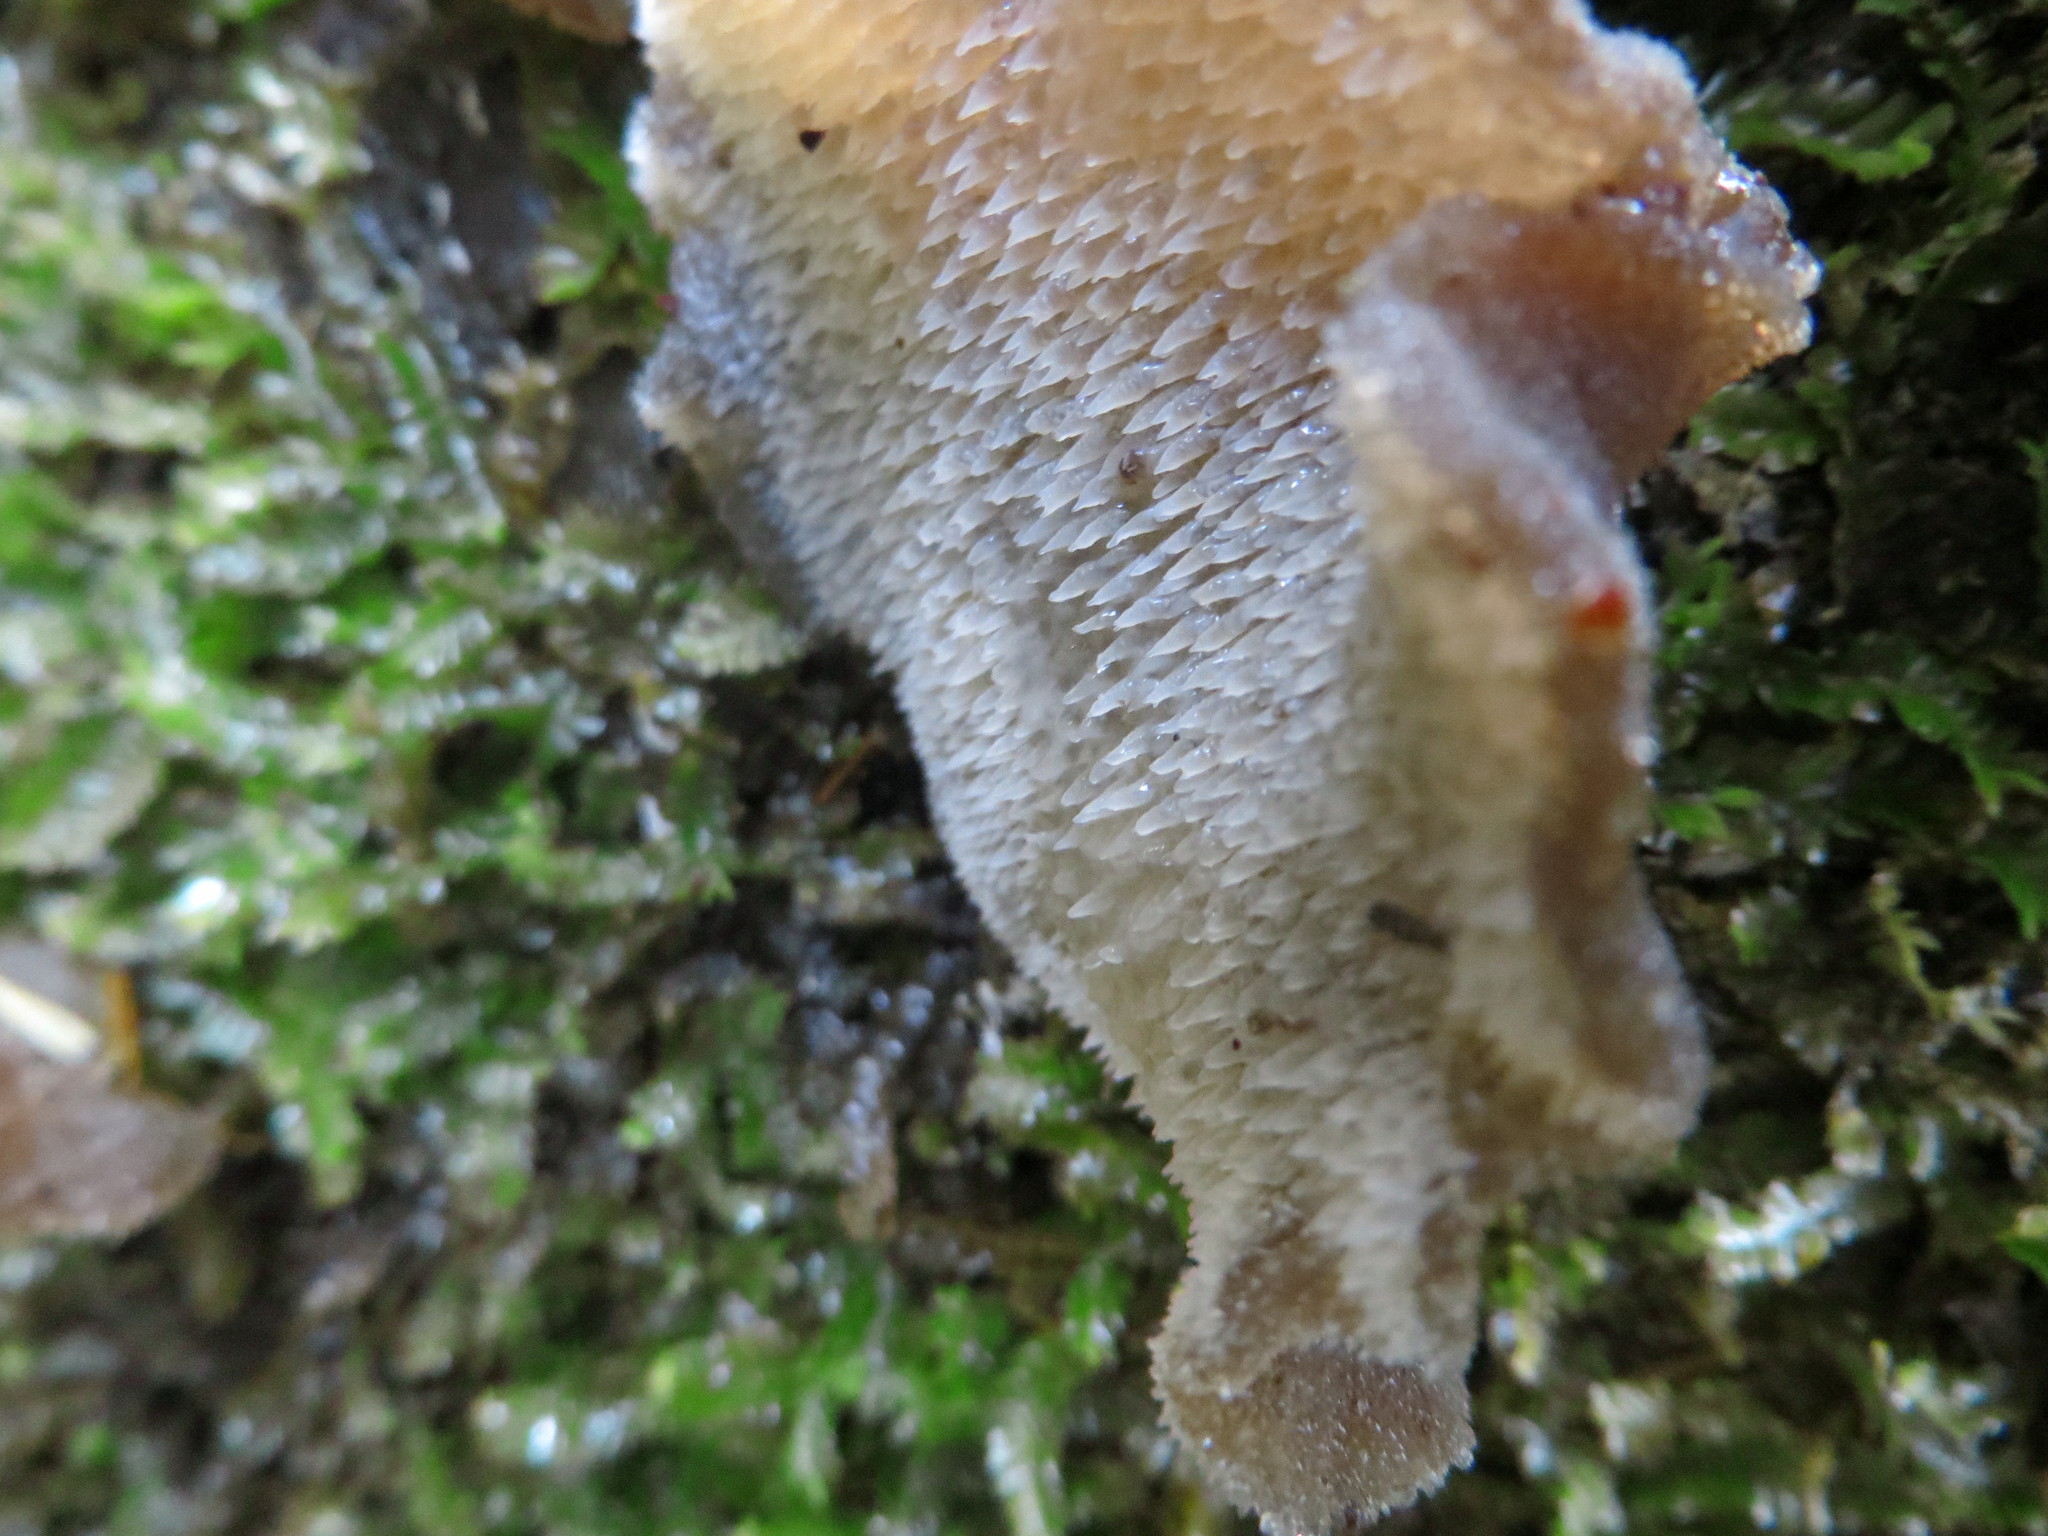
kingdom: Fungi
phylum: Basidiomycota
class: Agaricomycetes
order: Auriculariales
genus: Pseudohydnum
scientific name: Pseudohydnum orbiculare
